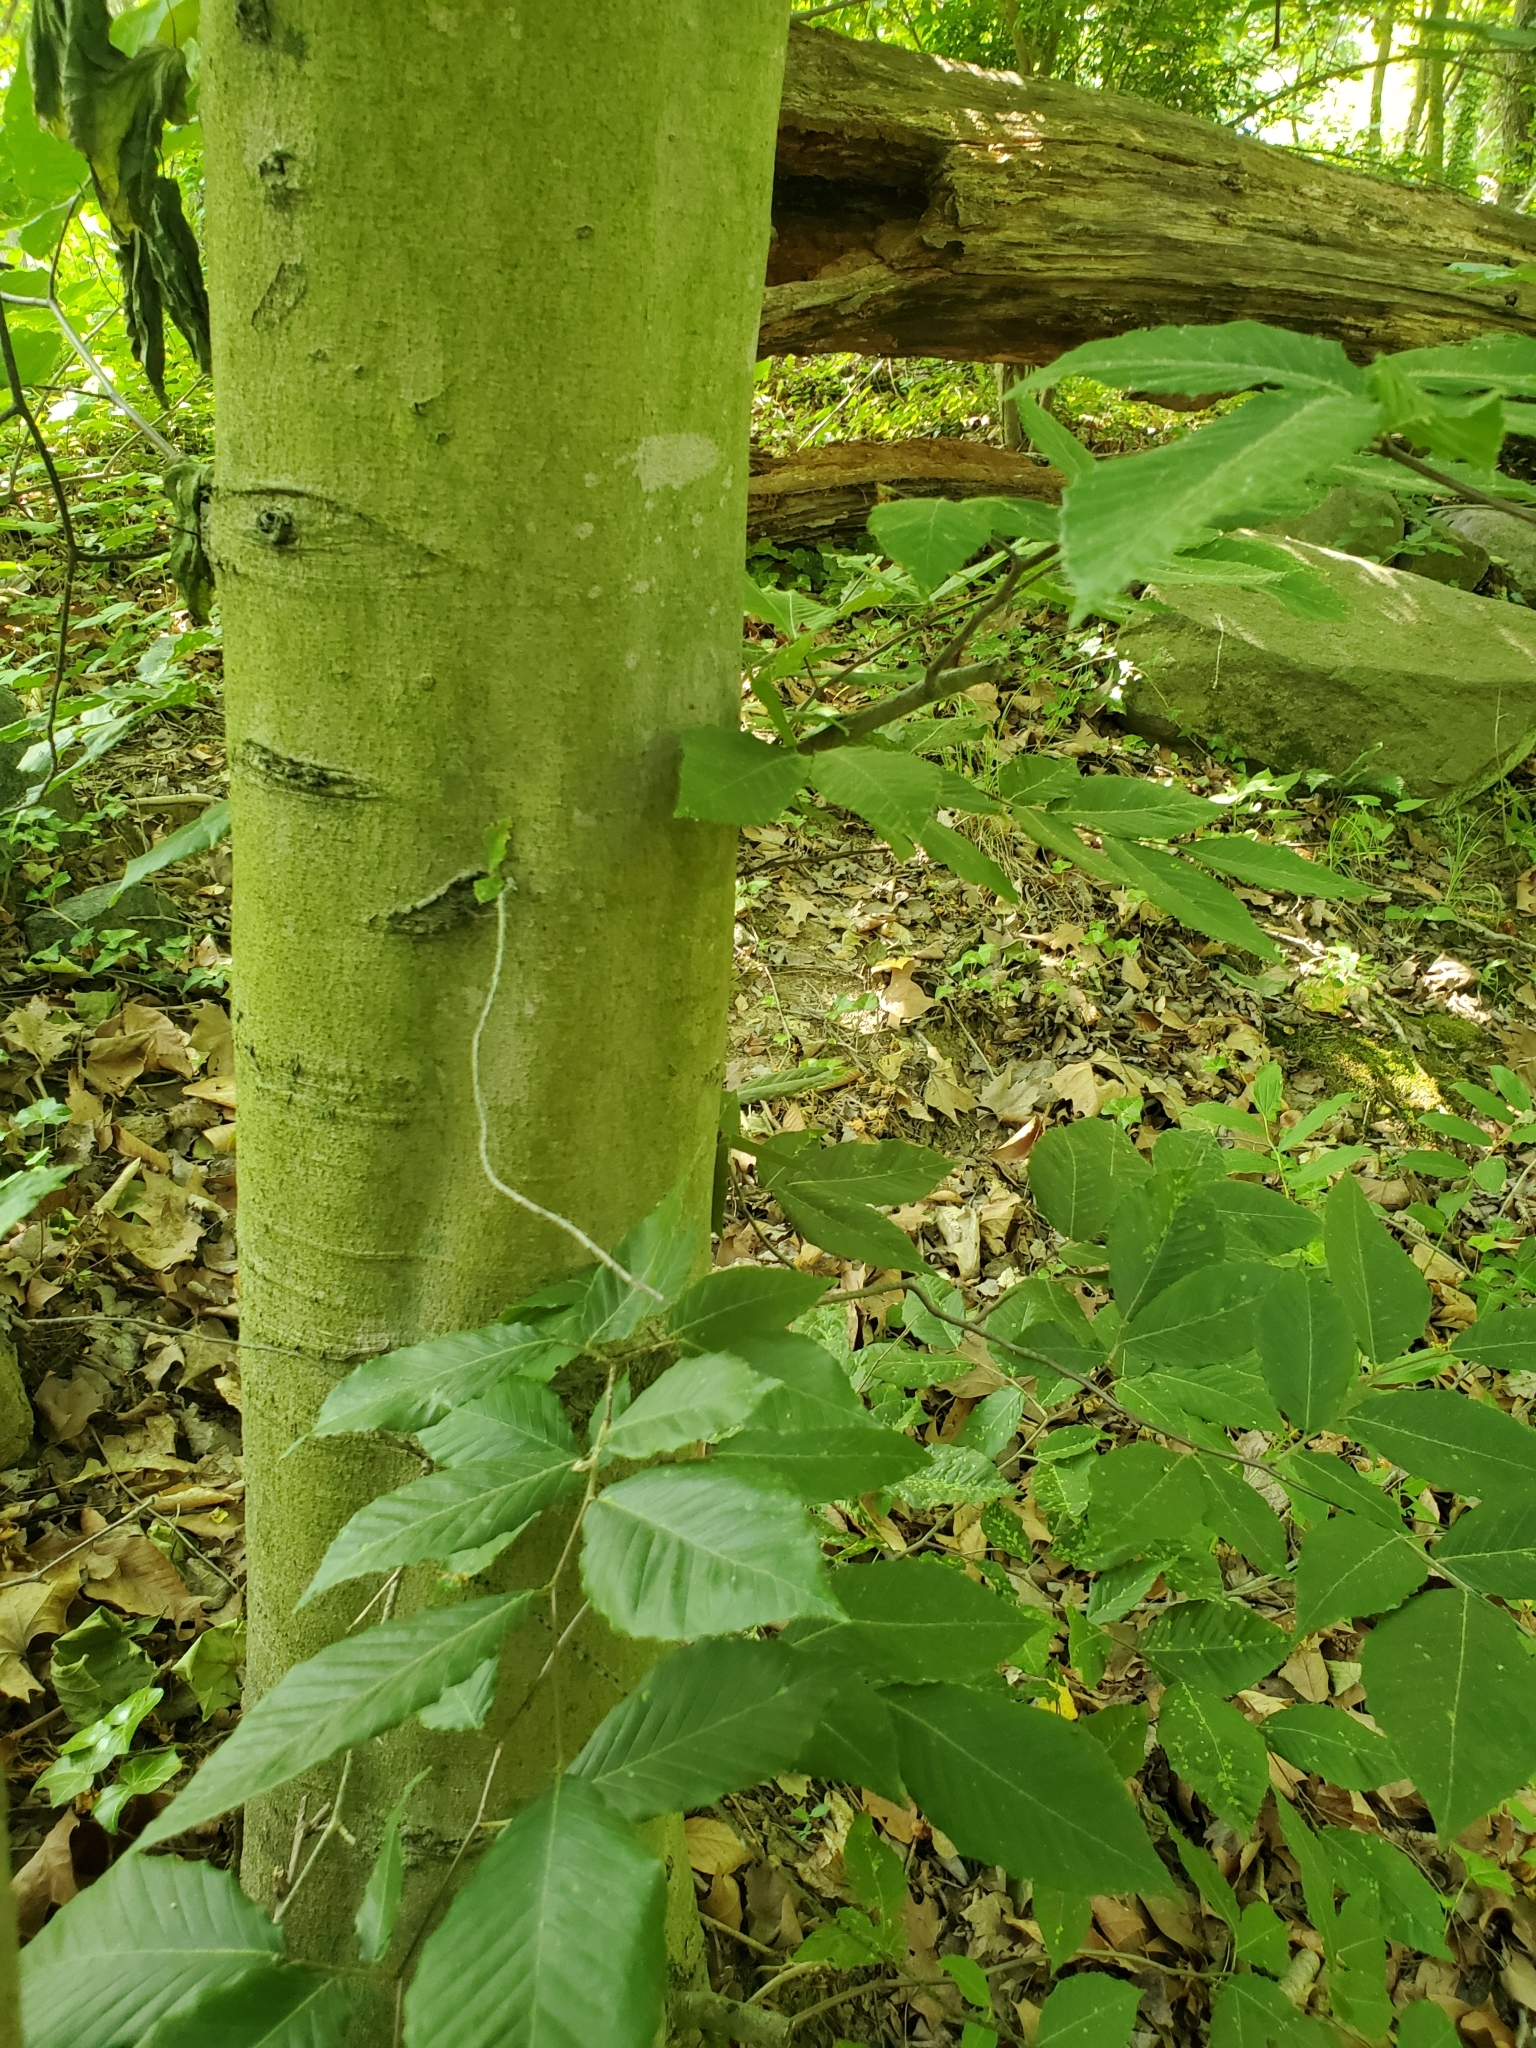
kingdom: Plantae
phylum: Tracheophyta
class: Magnoliopsida
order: Fagales
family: Fagaceae
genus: Fagus
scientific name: Fagus grandifolia
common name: American beech
